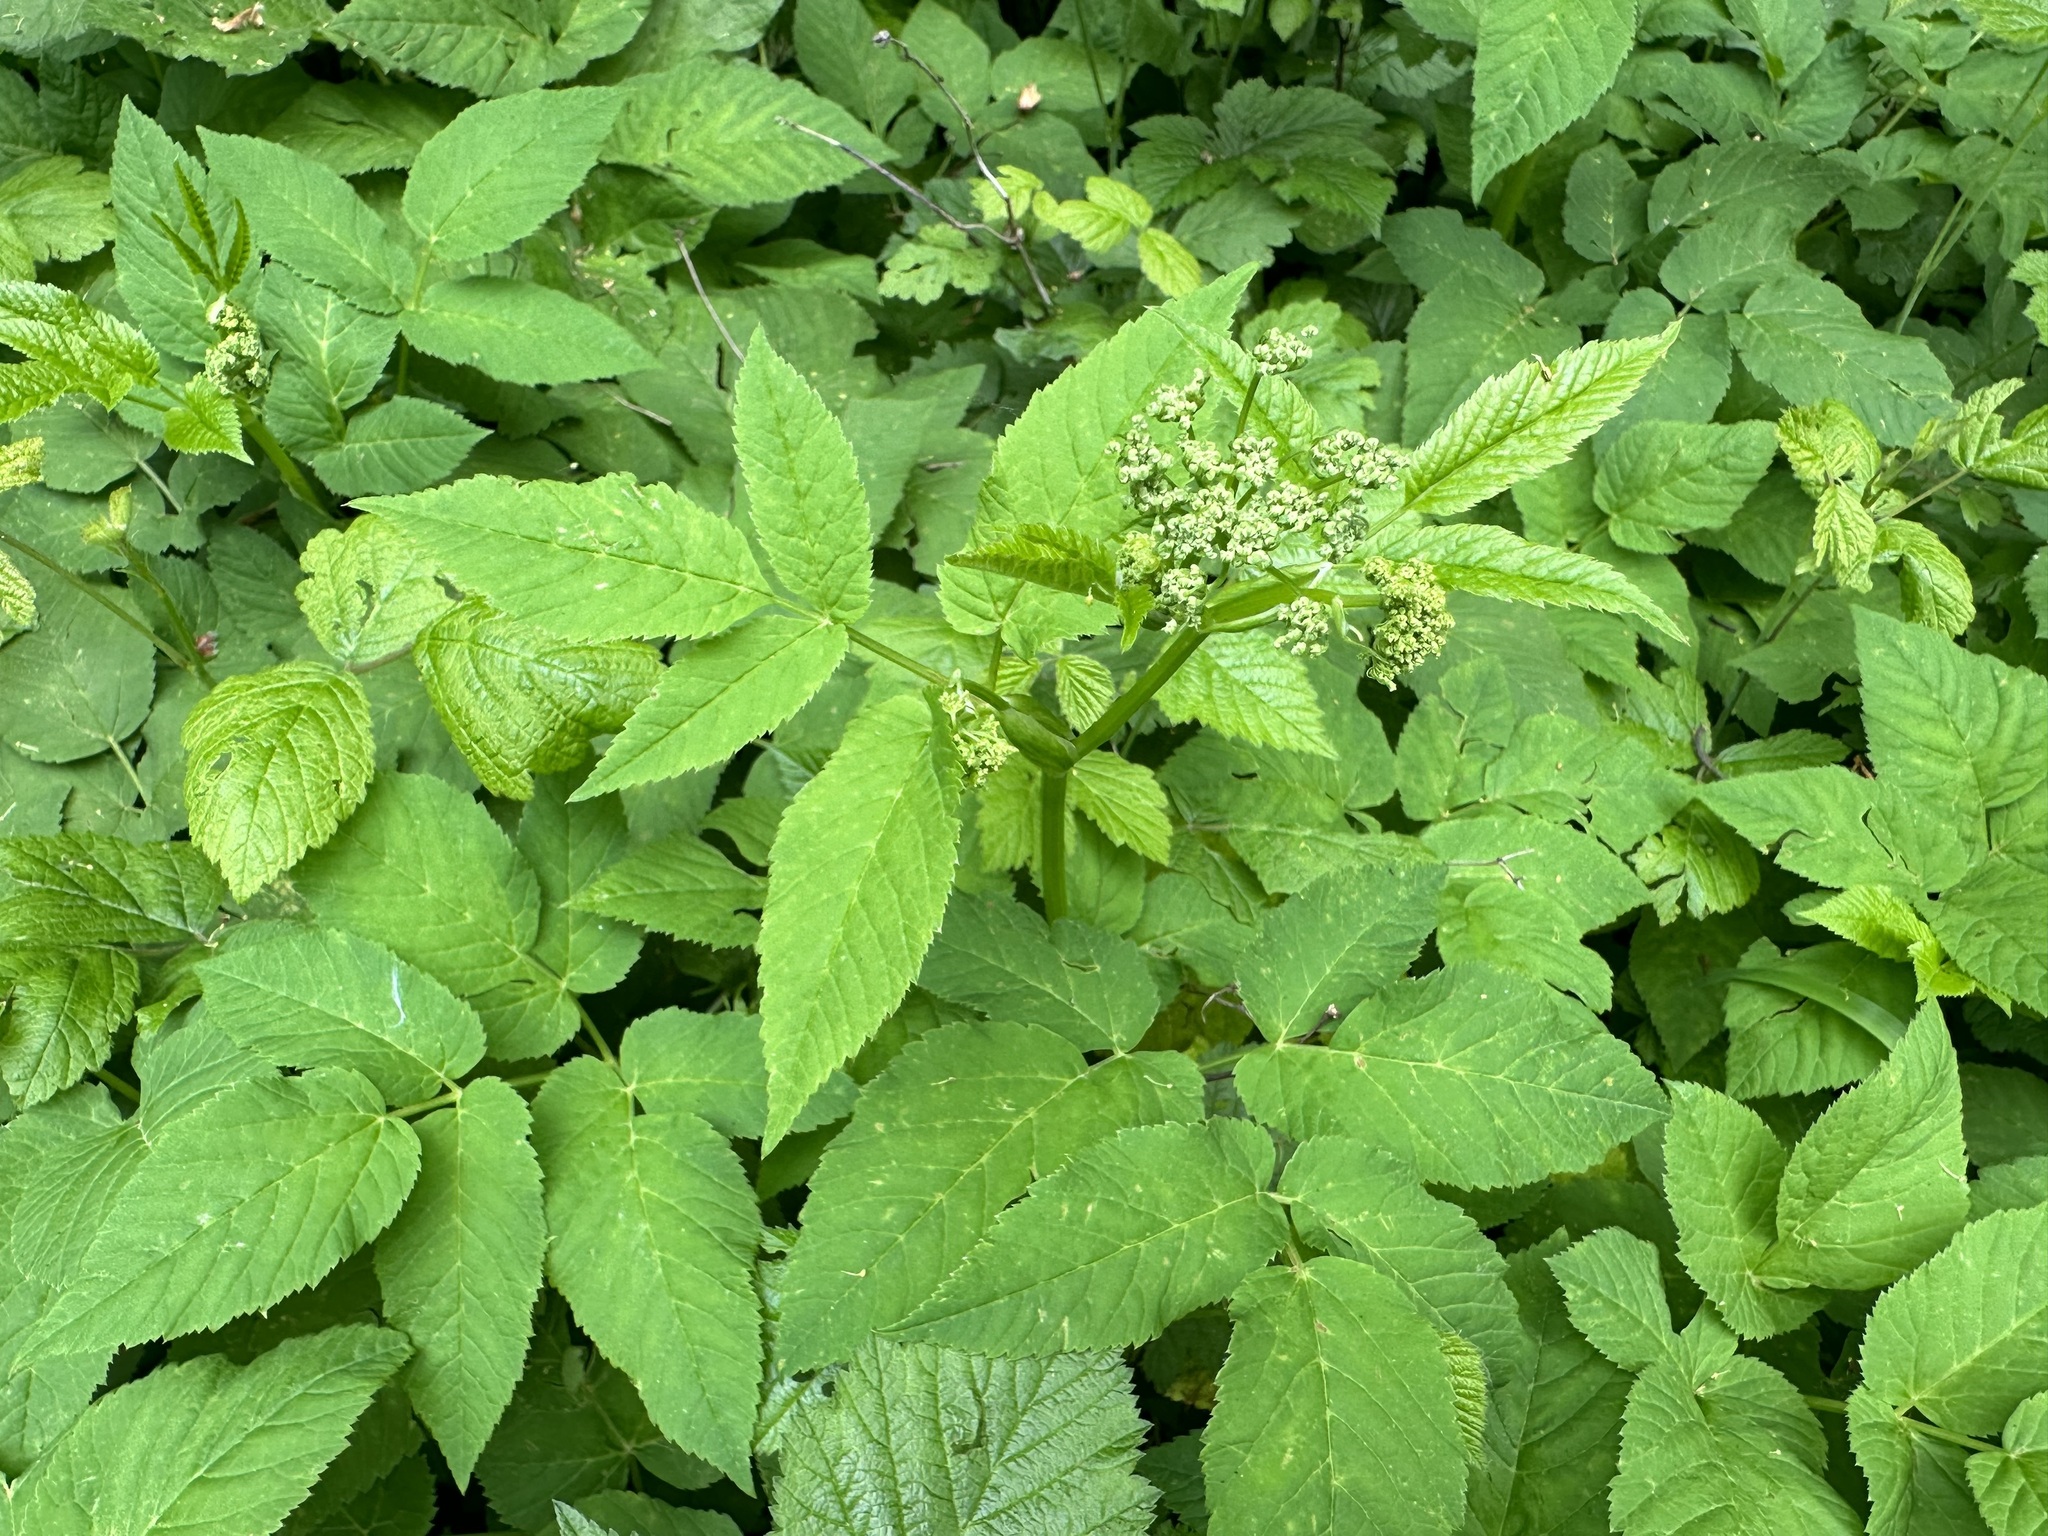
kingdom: Plantae
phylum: Tracheophyta
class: Magnoliopsida
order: Apiales
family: Apiaceae
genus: Aegopodium
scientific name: Aegopodium podagraria
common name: Ground-elder
